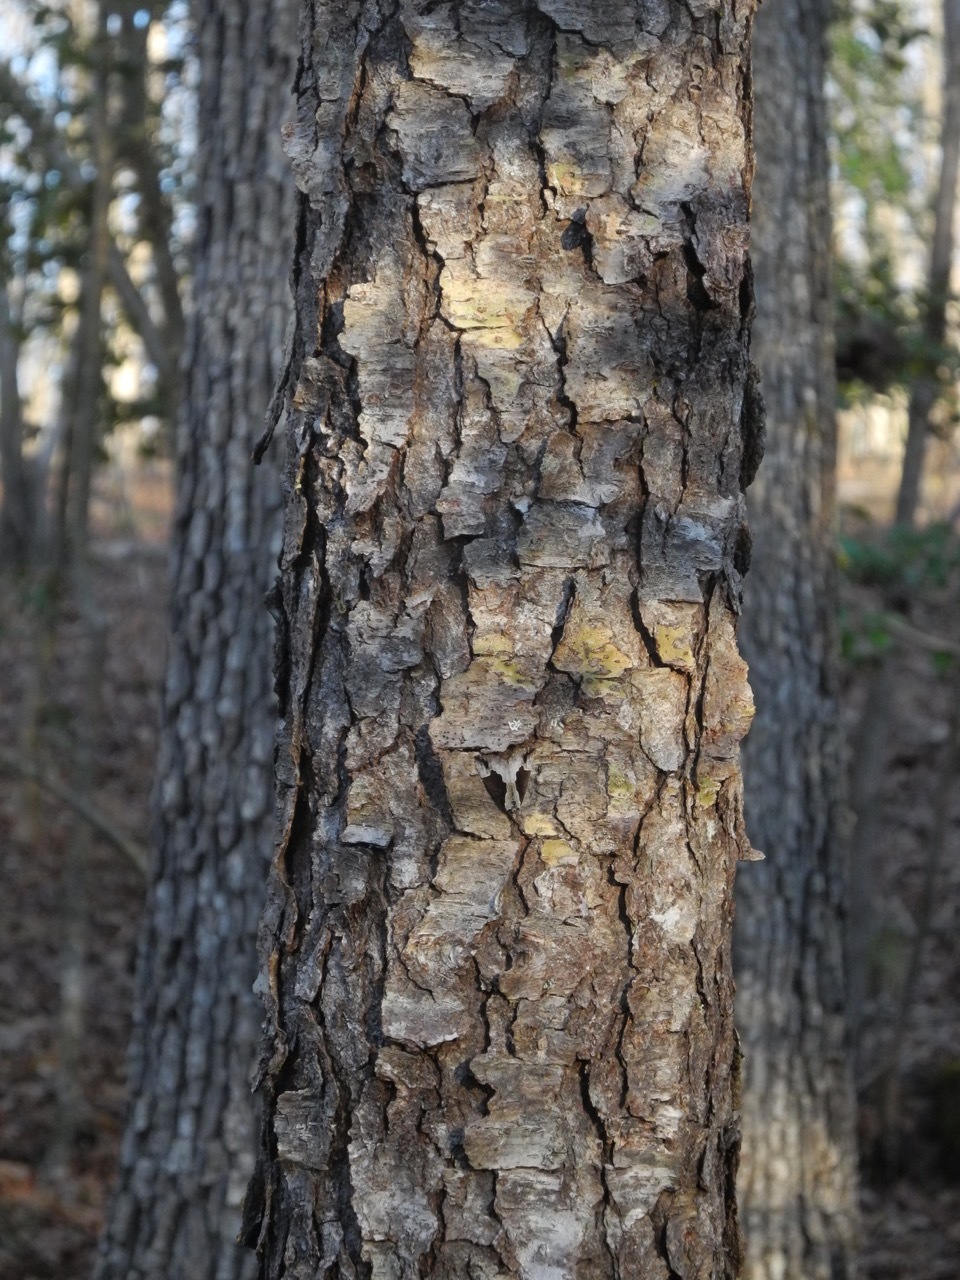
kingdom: Plantae
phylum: Tracheophyta
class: Magnoliopsida
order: Rosales
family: Rosaceae
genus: Prunus
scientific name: Prunus serotina
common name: Black cherry
